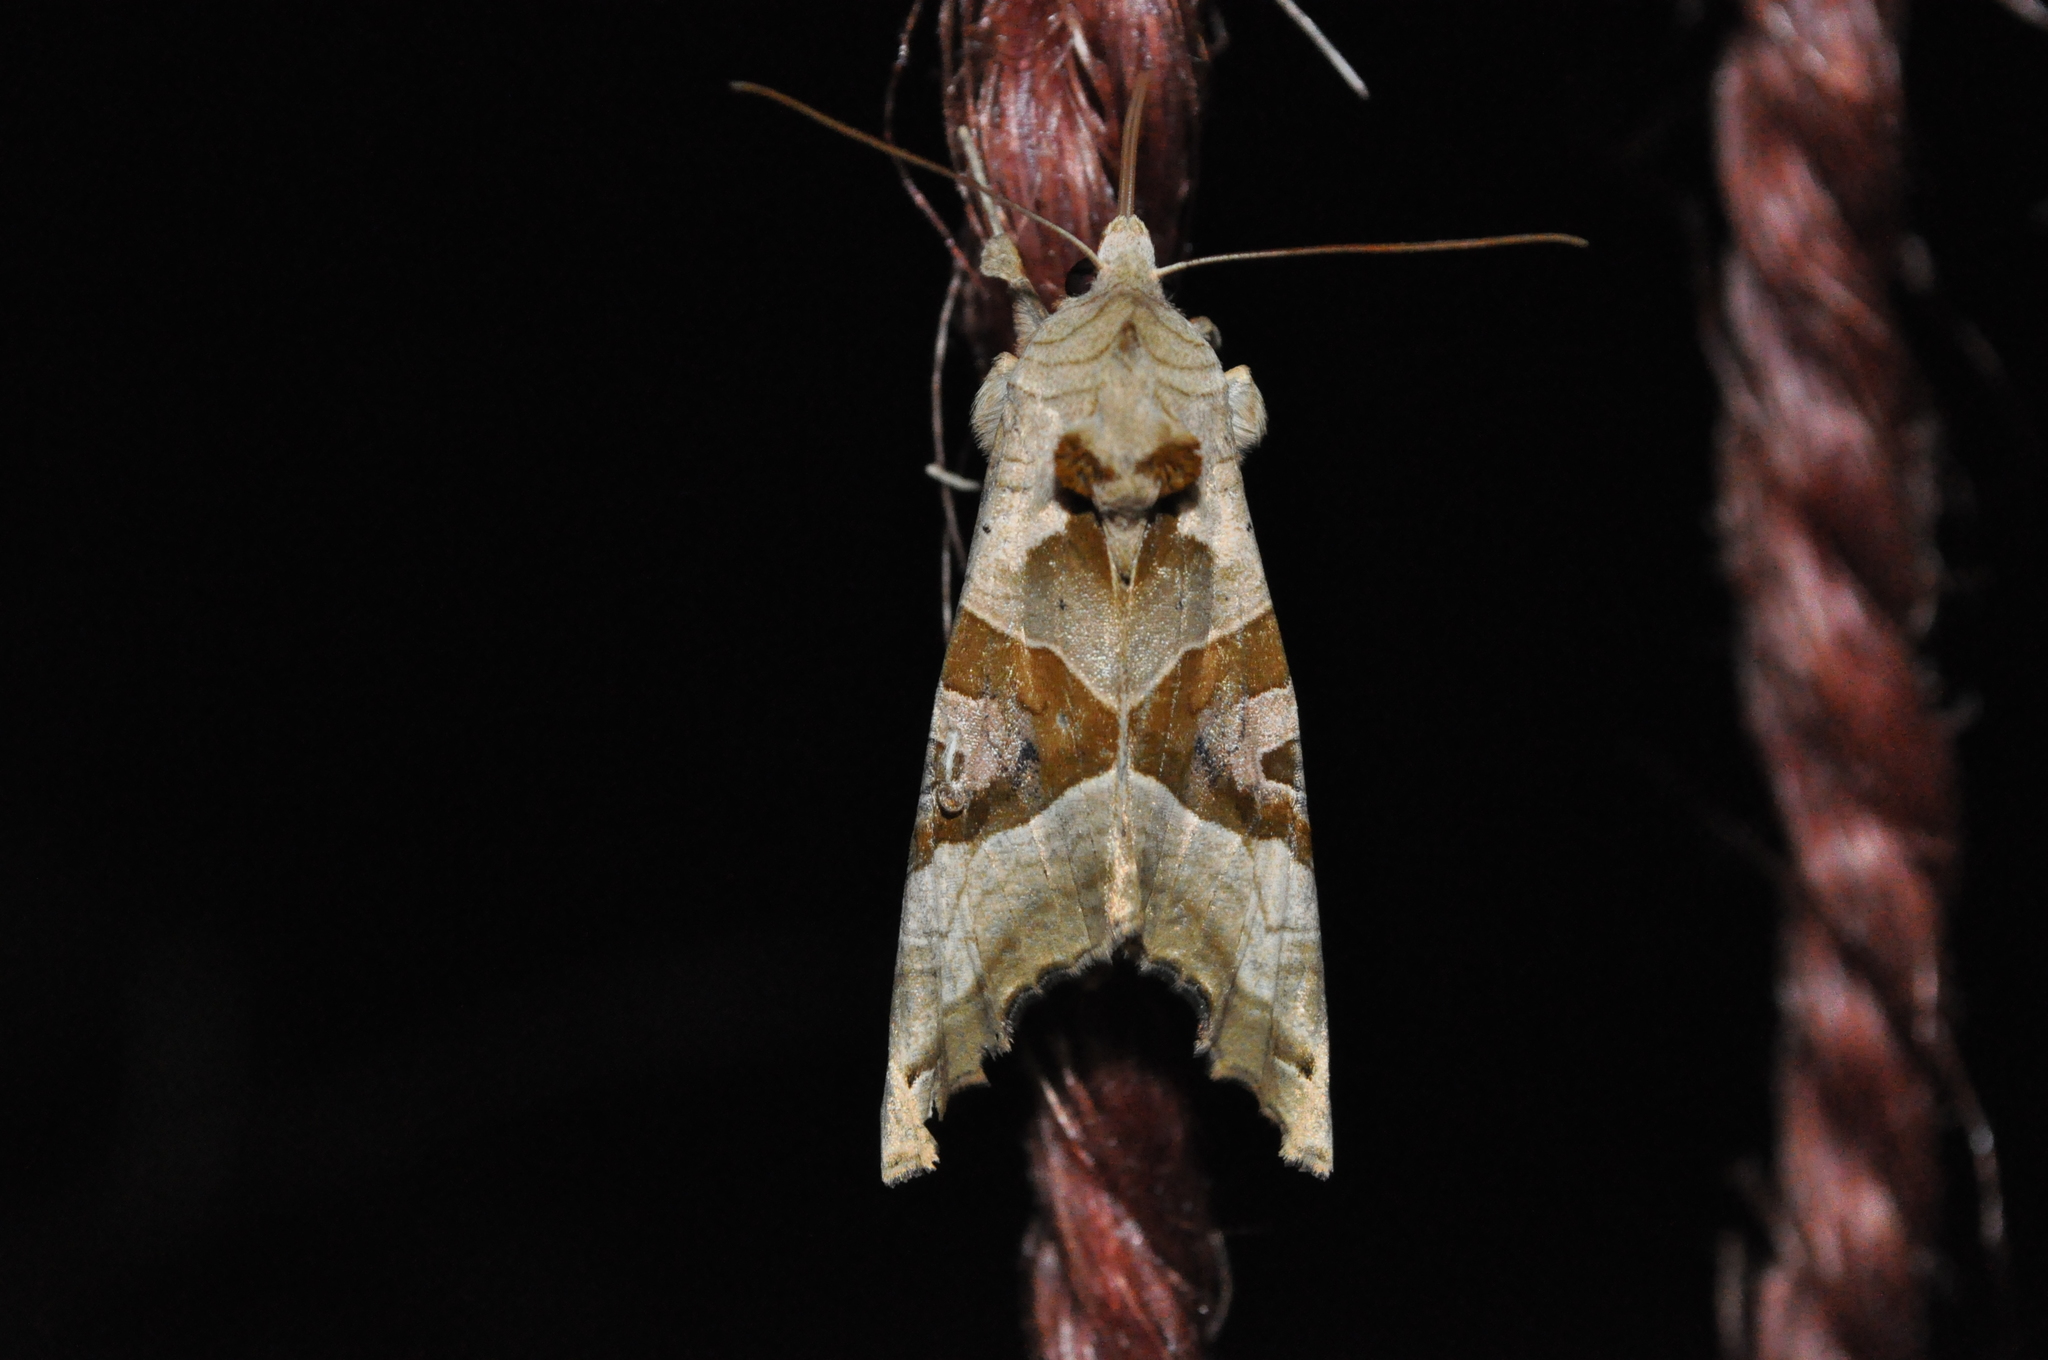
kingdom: Animalia
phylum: Arthropoda
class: Insecta
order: Lepidoptera
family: Noctuidae
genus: Phlogophora
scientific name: Phlogophora meticulosa
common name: Angle shades
